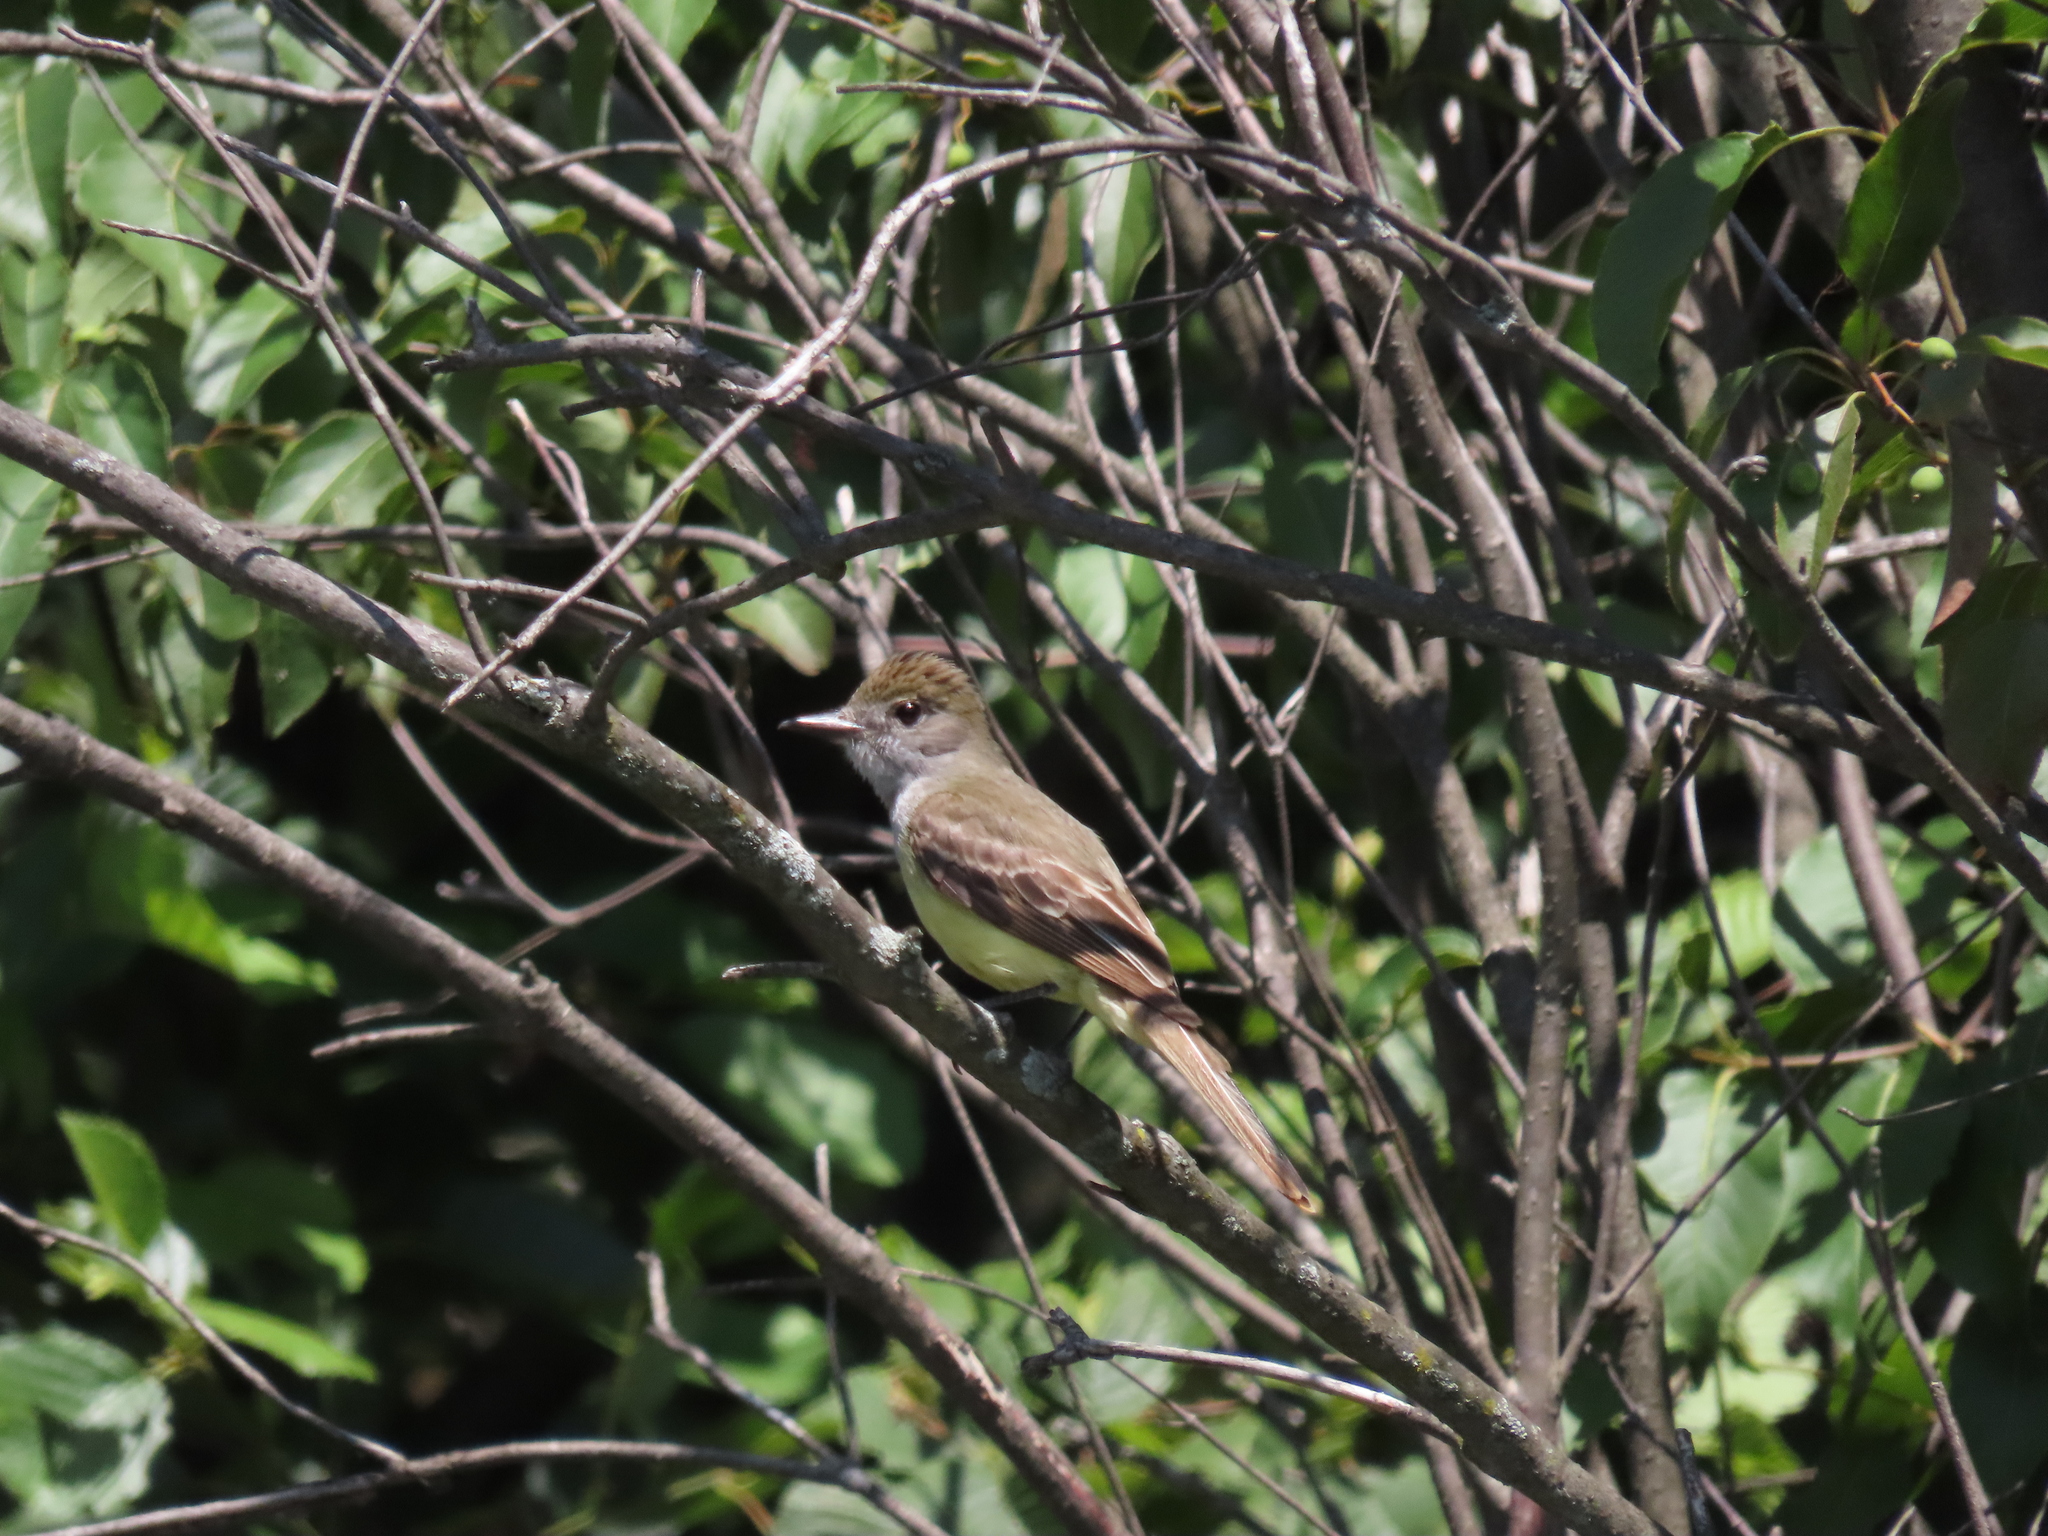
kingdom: Animalia
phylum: Chordata
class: Aves
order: Passeriformes
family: Tyrannidae
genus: Myiarchus
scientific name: Myiarchus crinitus
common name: Great crested flycatcher
